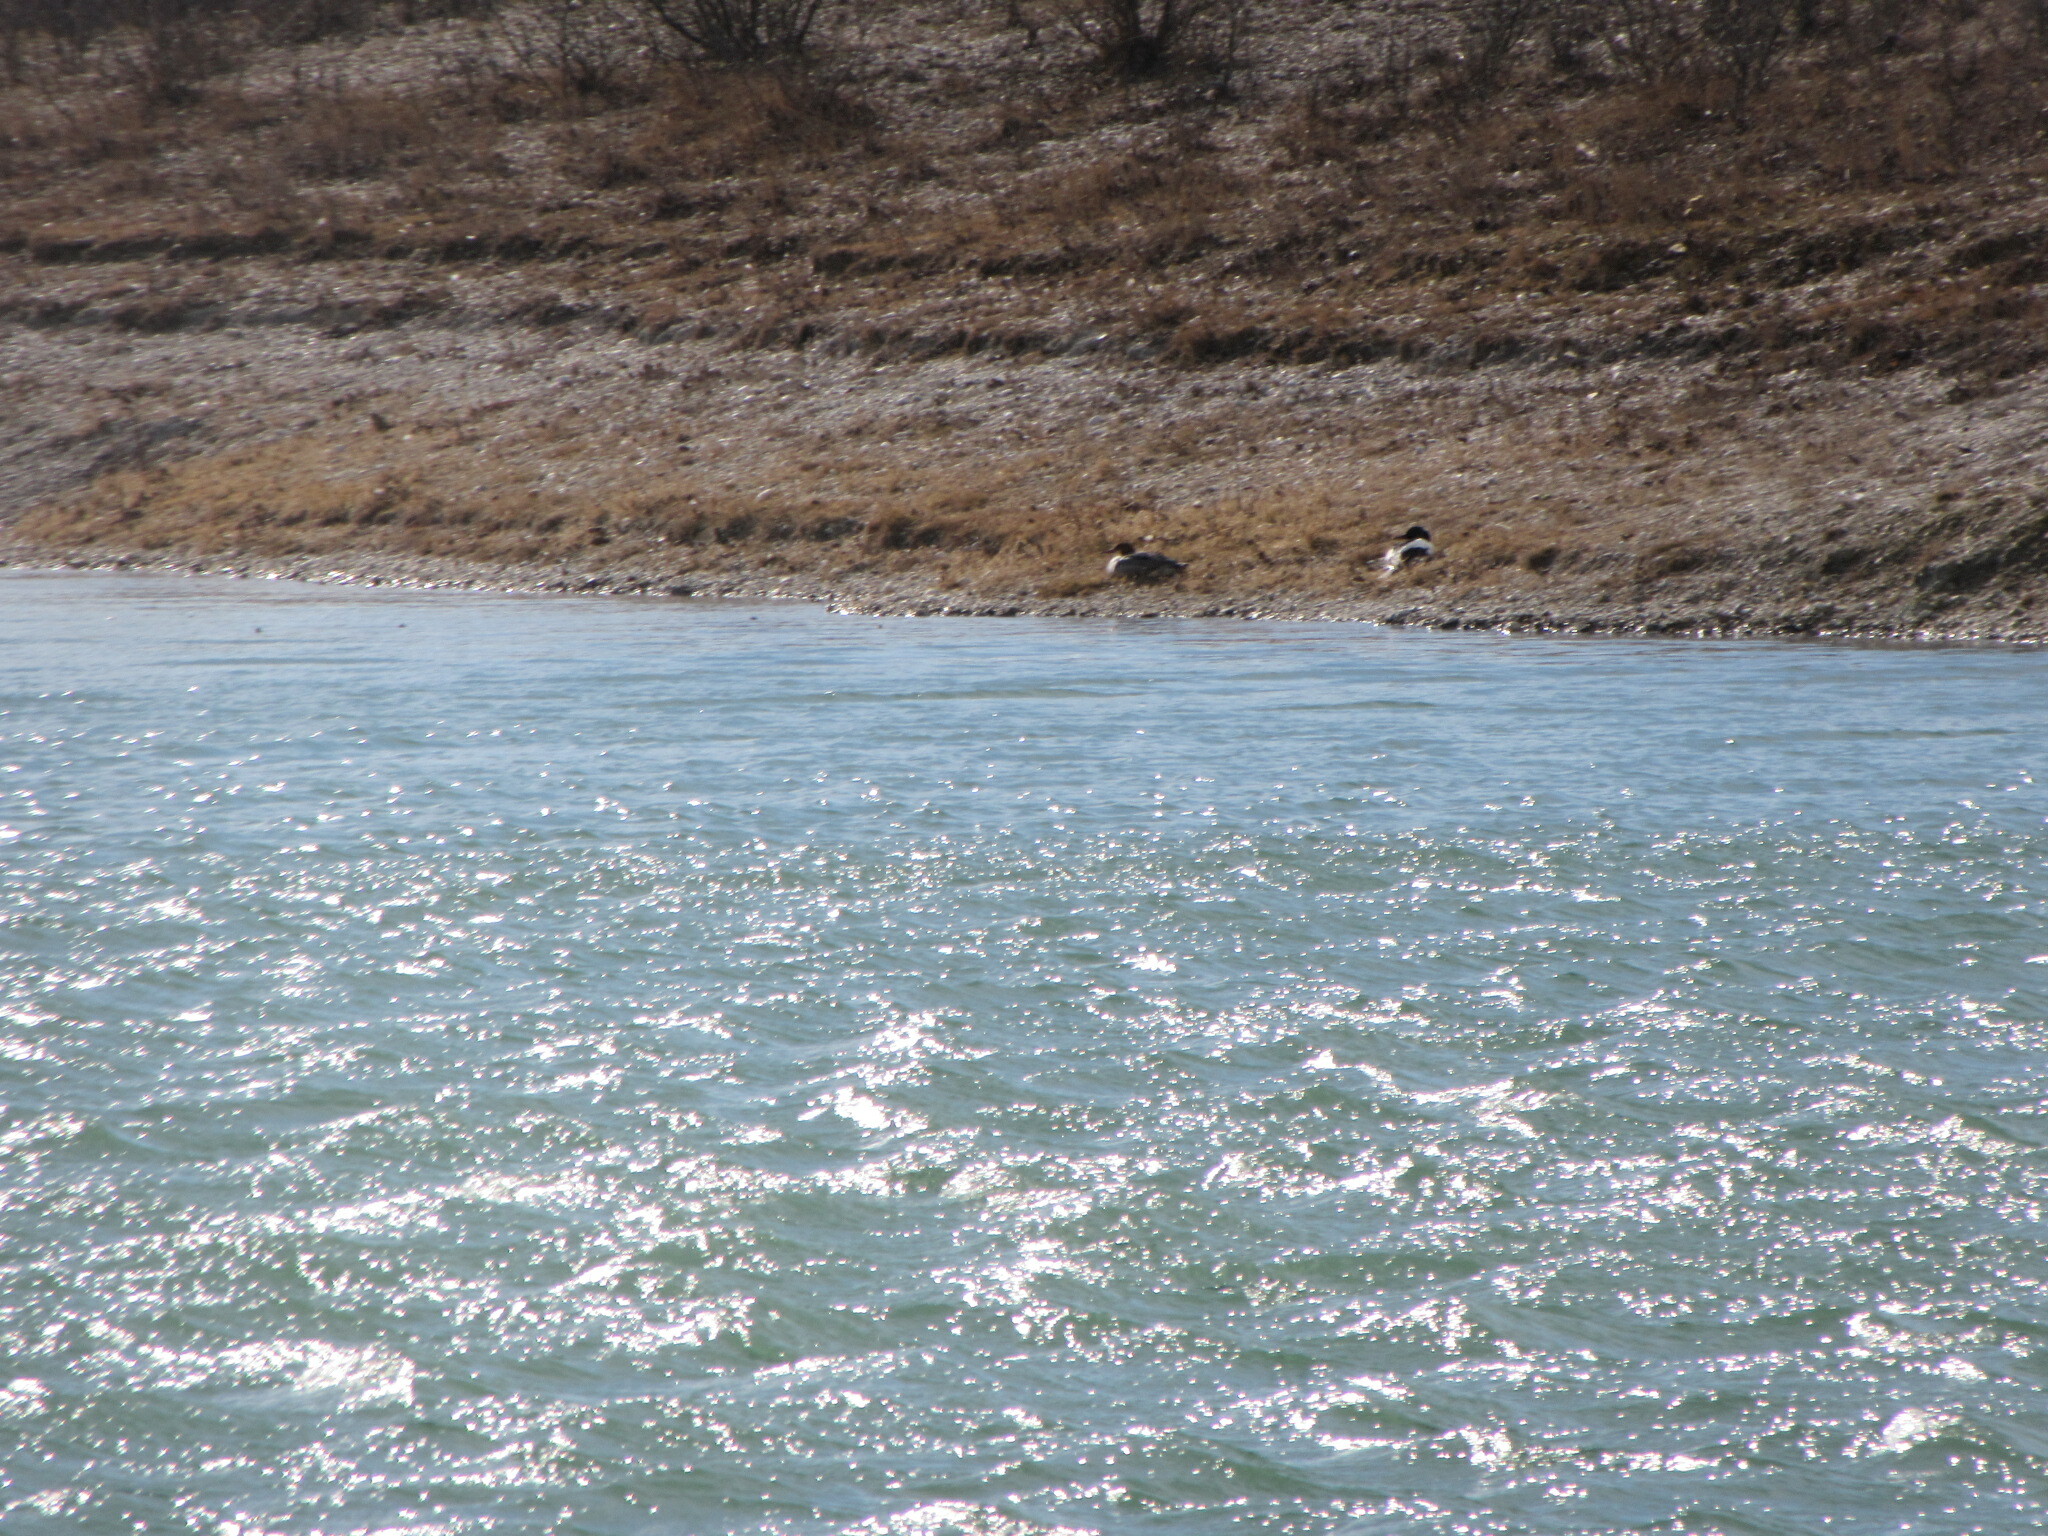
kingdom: Animalia
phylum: Chordata
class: Aves
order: Anseriformes
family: Anatidae
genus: Mergus
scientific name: Mergus merganser
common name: Common merganser
